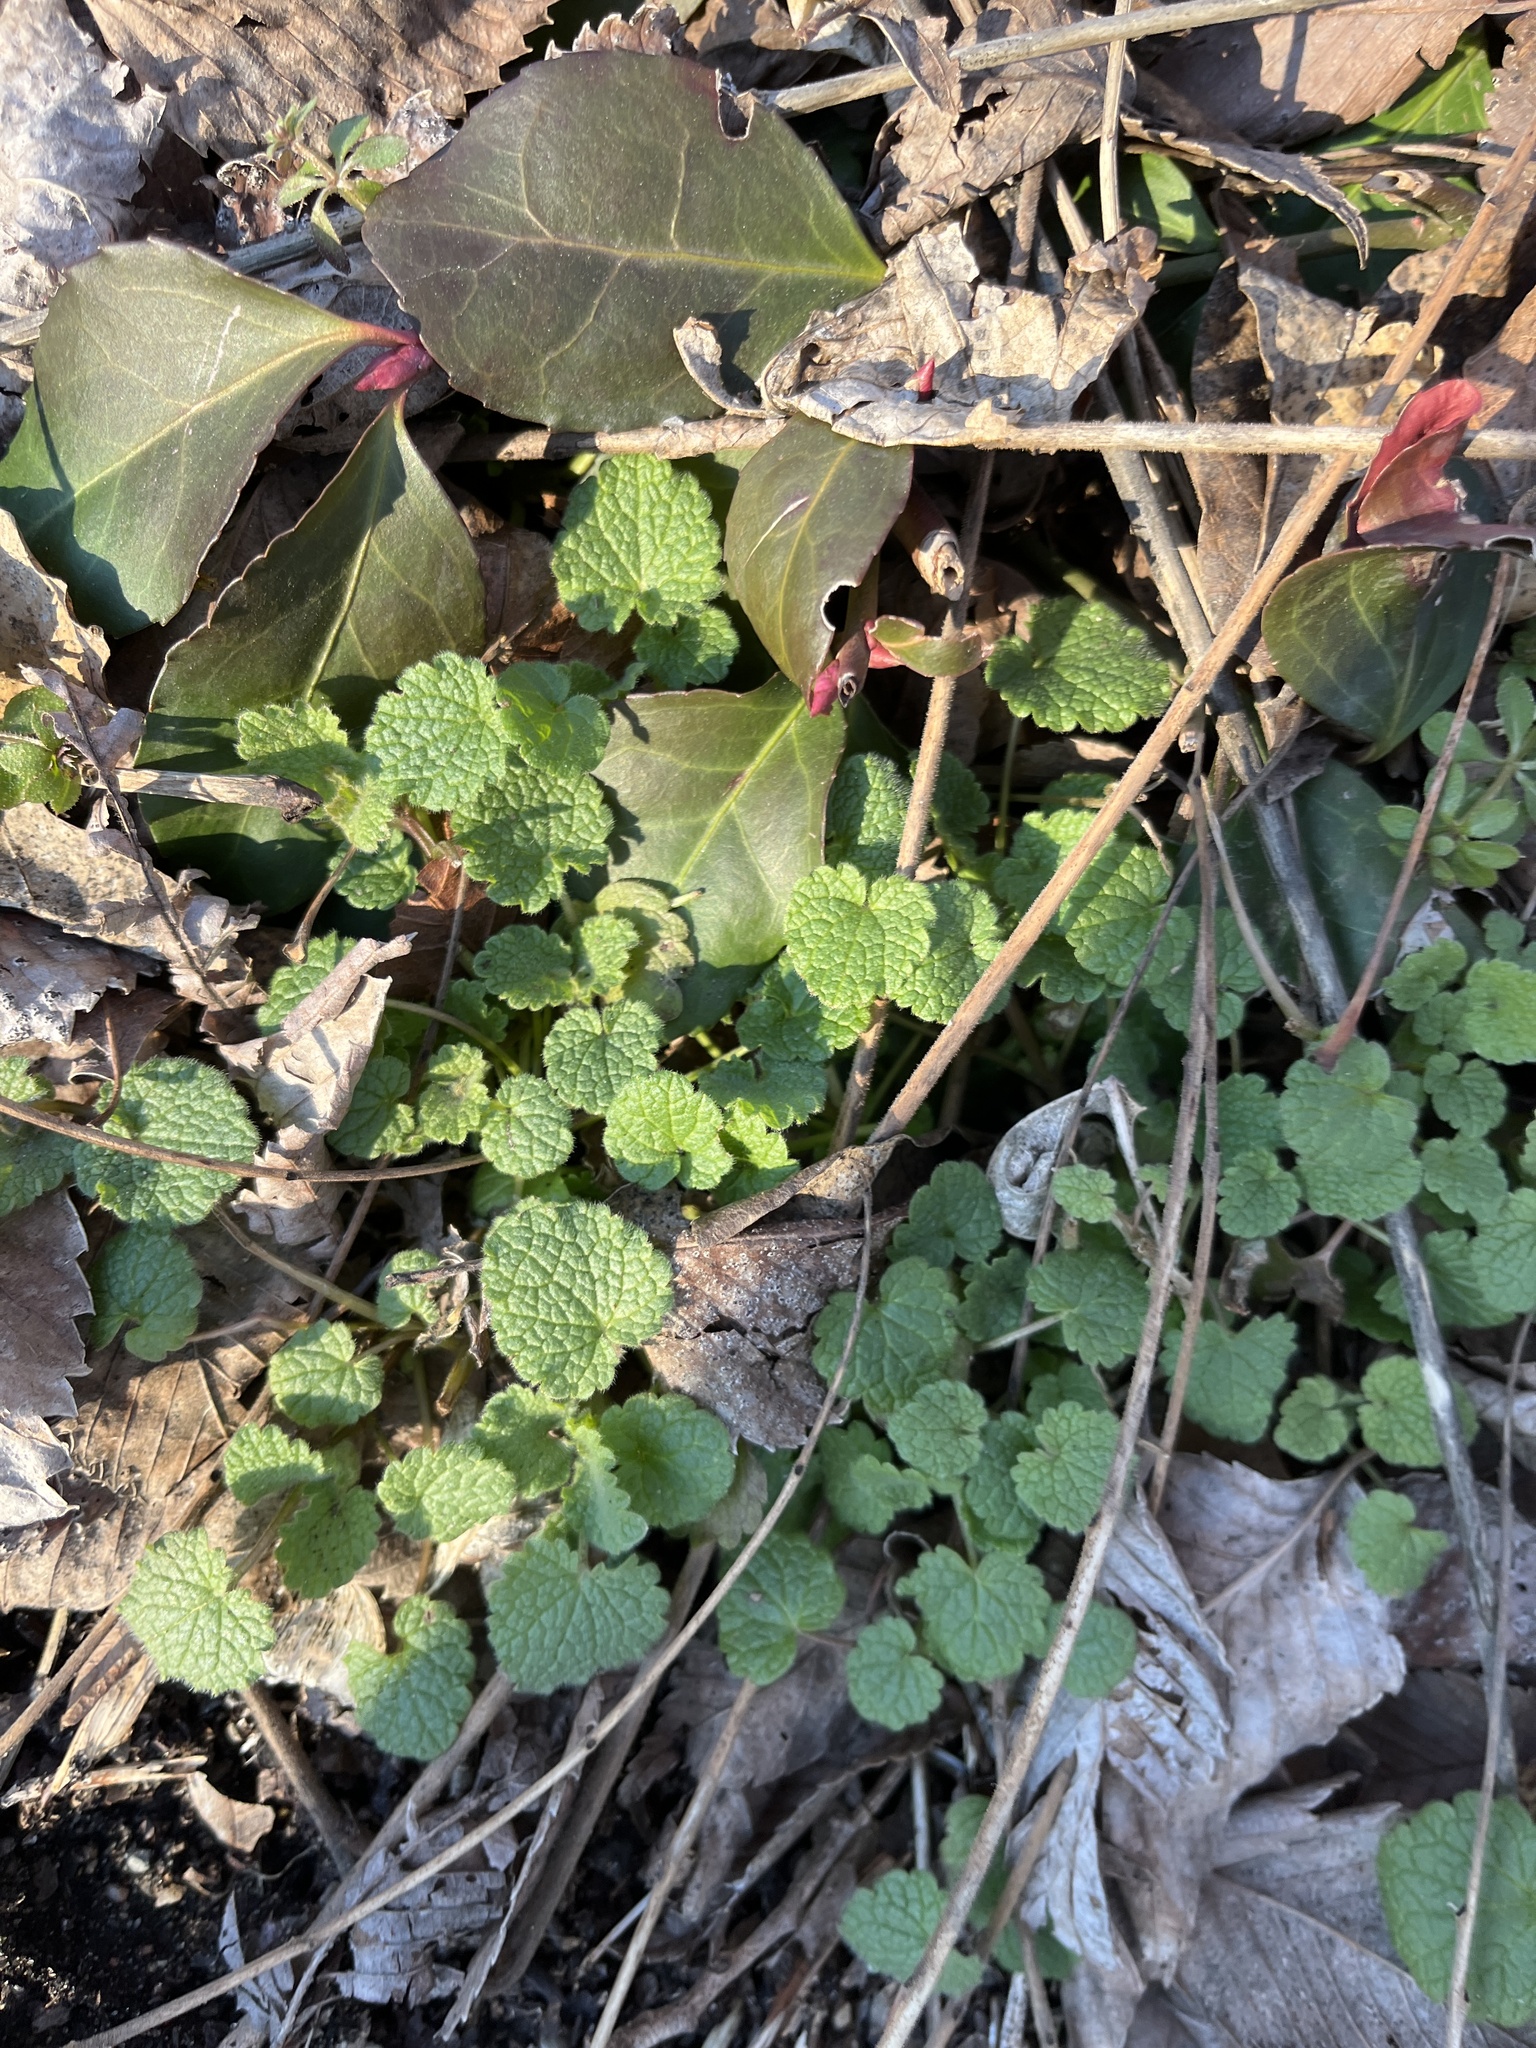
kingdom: Plantae
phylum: Tracheophyta
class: Magnoliopsida
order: Lamiales
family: Lamiaceae
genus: Lamium
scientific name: Lamium purpureum
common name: Red dead-nettle
